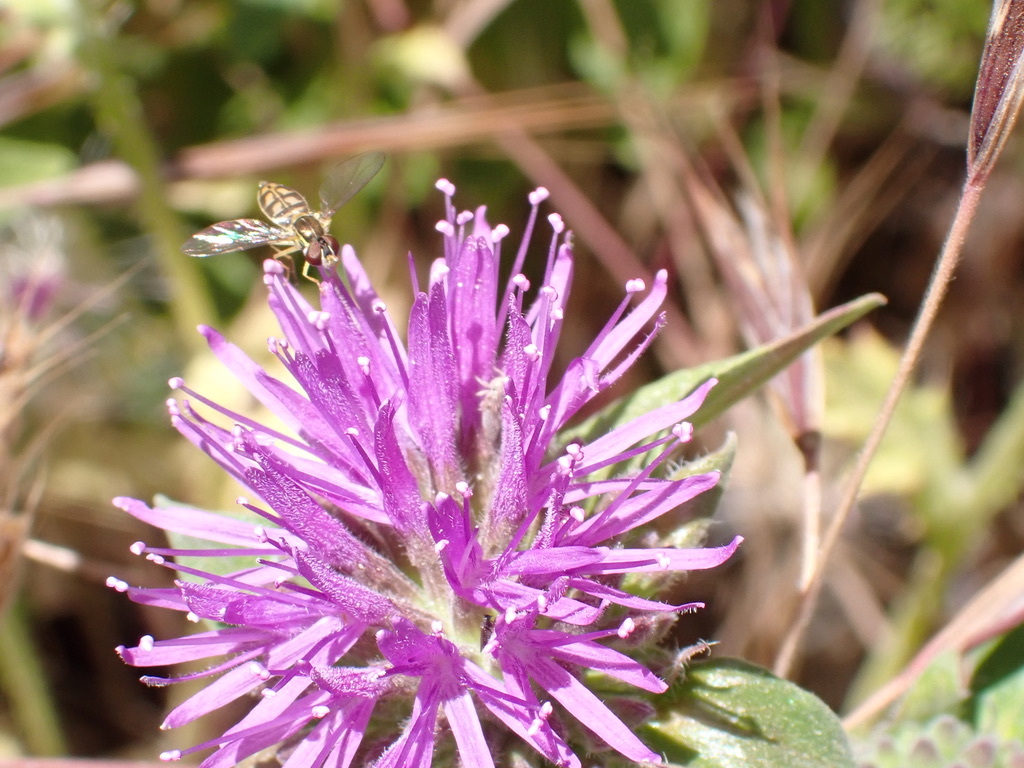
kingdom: Animalia
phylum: Arthropoda
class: Insecta
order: Diptera
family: Syrphidae
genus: Toxomerus
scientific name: Toxomerus marginatus
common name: Syrphid fly
